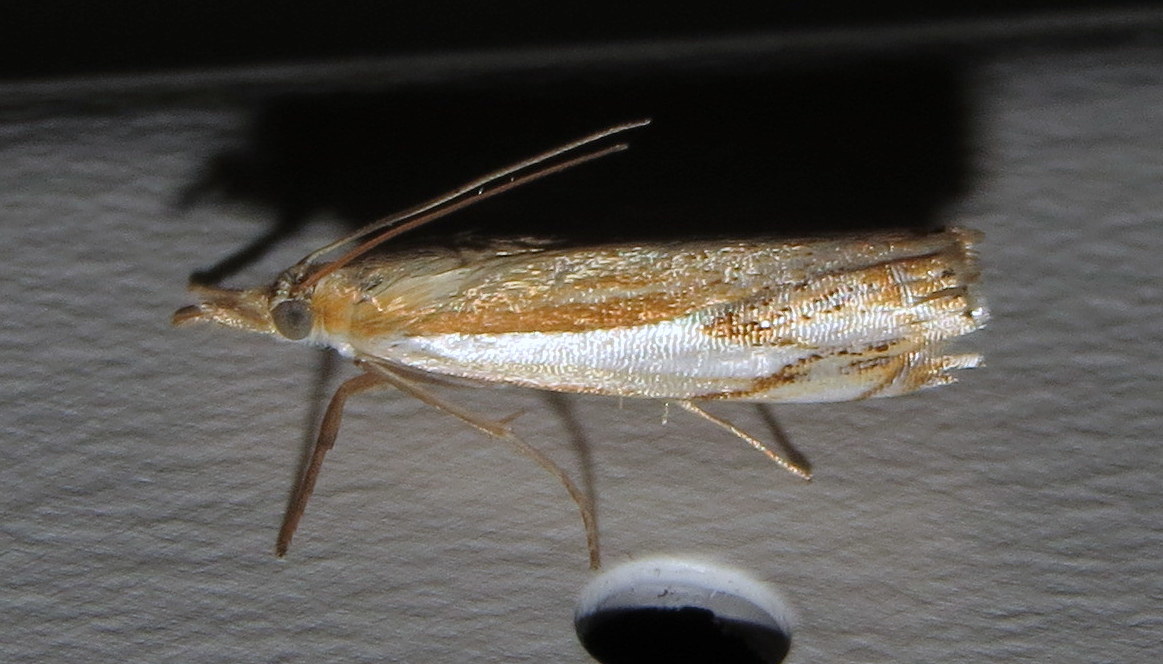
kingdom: Animalia
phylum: Arthropoda
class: Insecta
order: Lepidoptera
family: Crambidae
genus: Crambus
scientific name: Crambus agitatellus
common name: Double-banded grass-veneer
